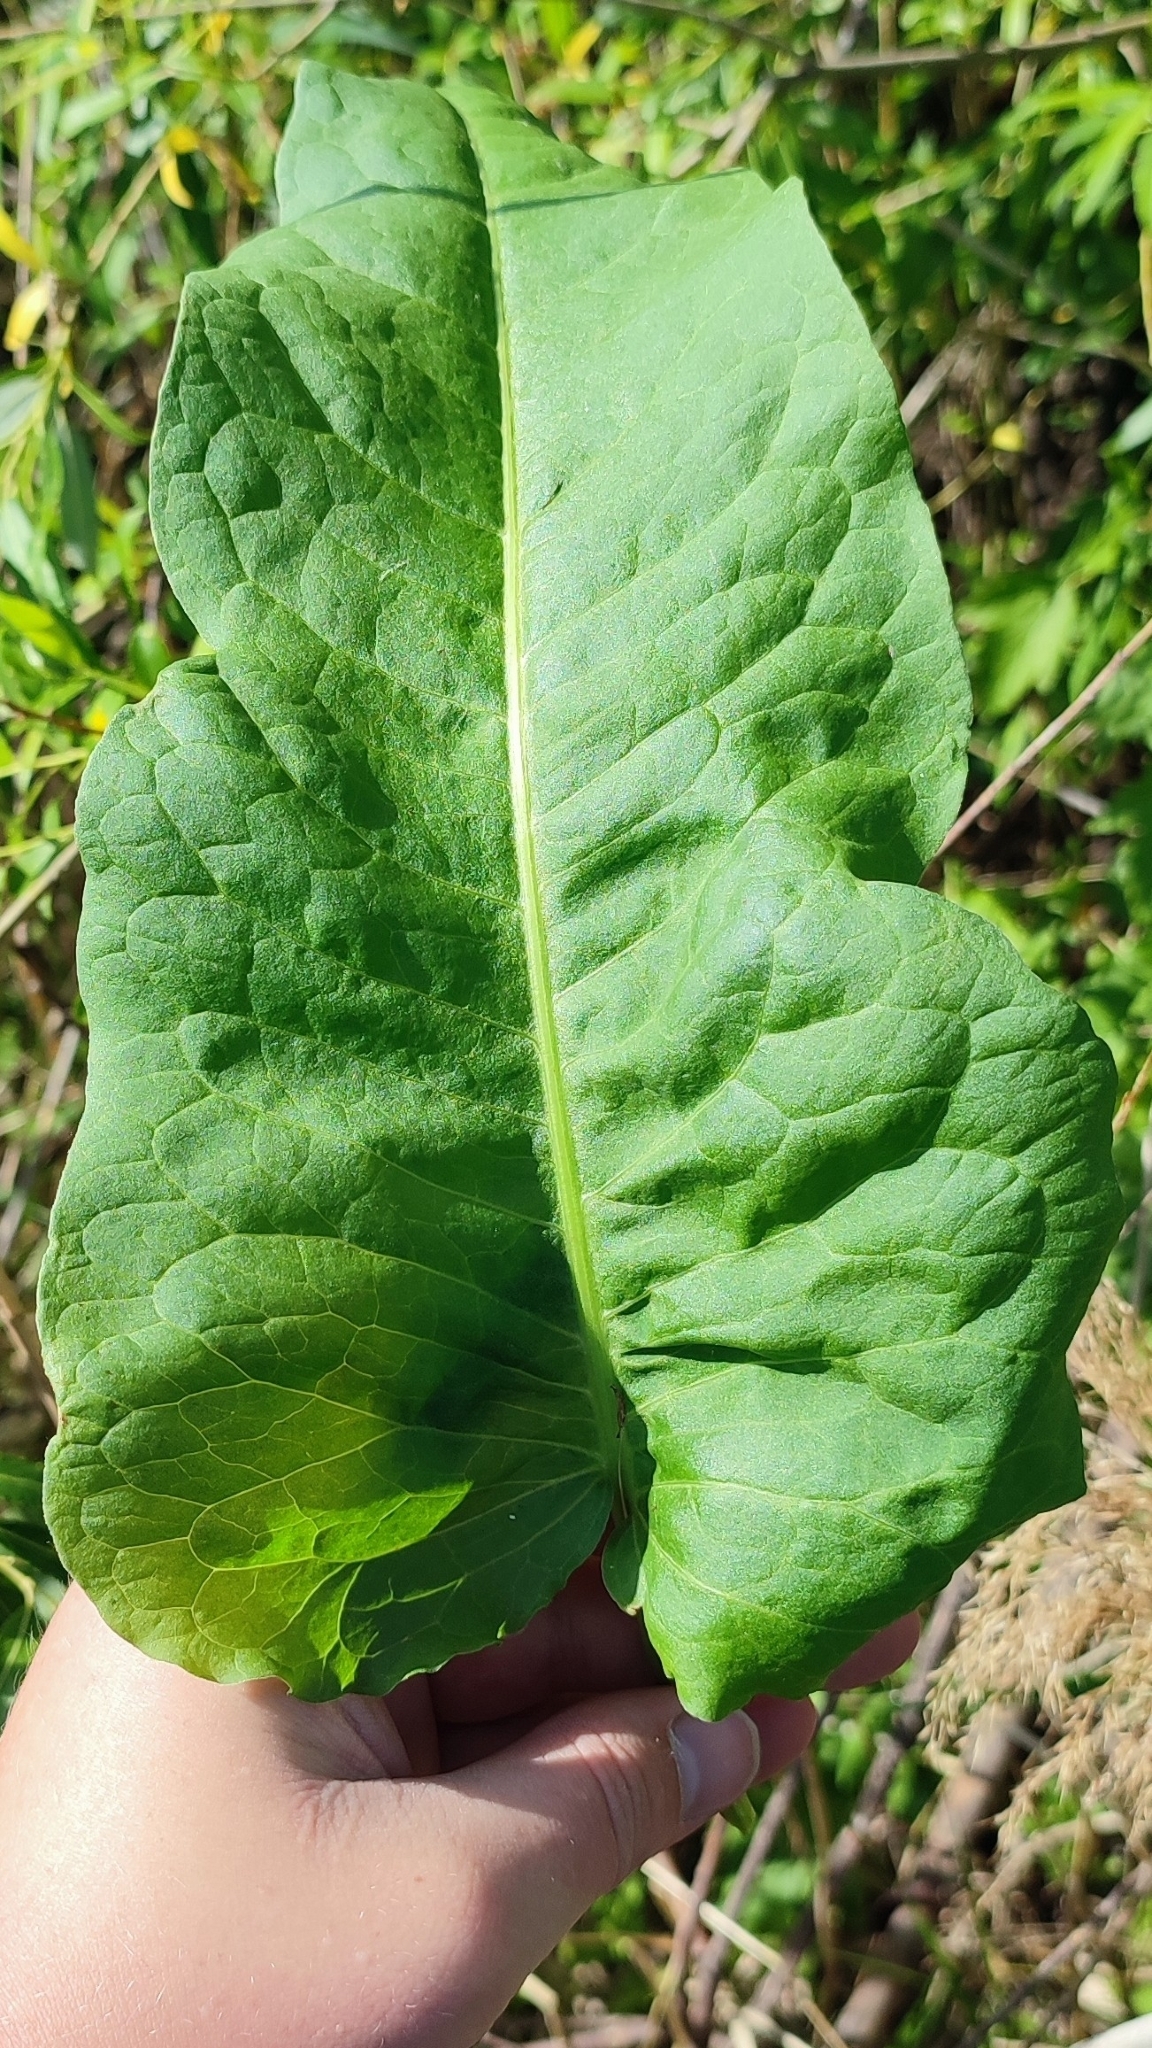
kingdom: Plantae
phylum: Tracheophyta
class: Magnoliopsida
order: Caryophyllales
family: Polygonaceae
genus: Rumex
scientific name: Rumex aquaticus
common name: Scottish dock
